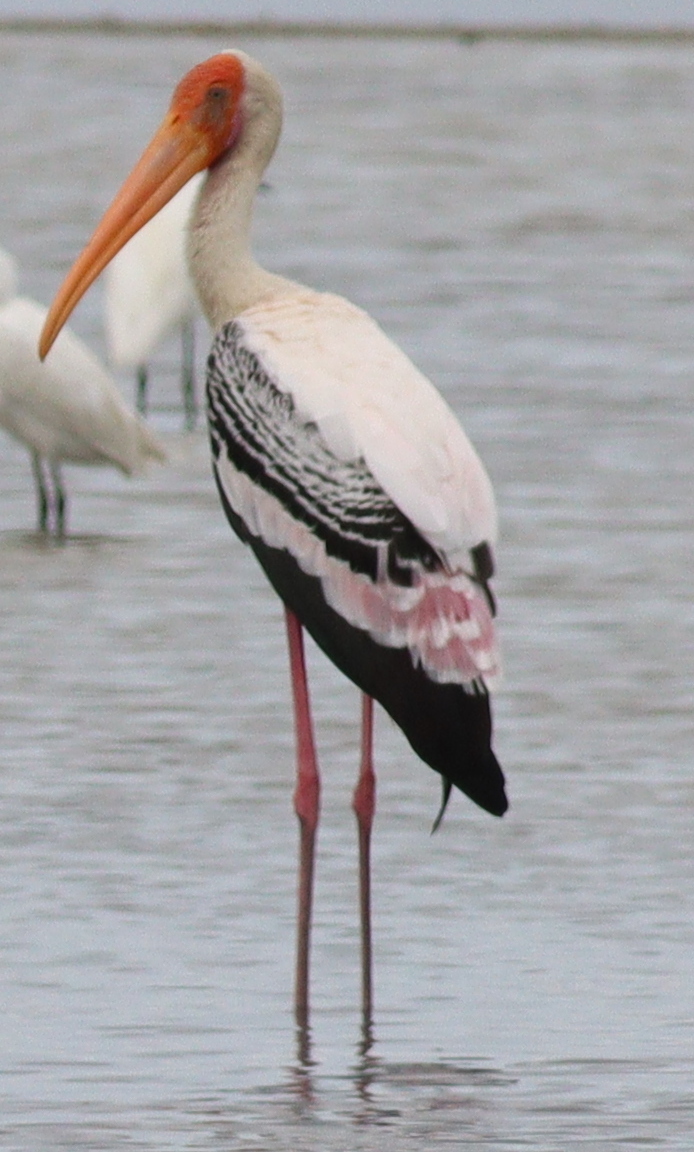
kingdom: Animalia
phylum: Chordata
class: Aves
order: Ciconiiformes
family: Ciconiidae
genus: Mycteria
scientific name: Mycteria leucocephala
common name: Painted stork
